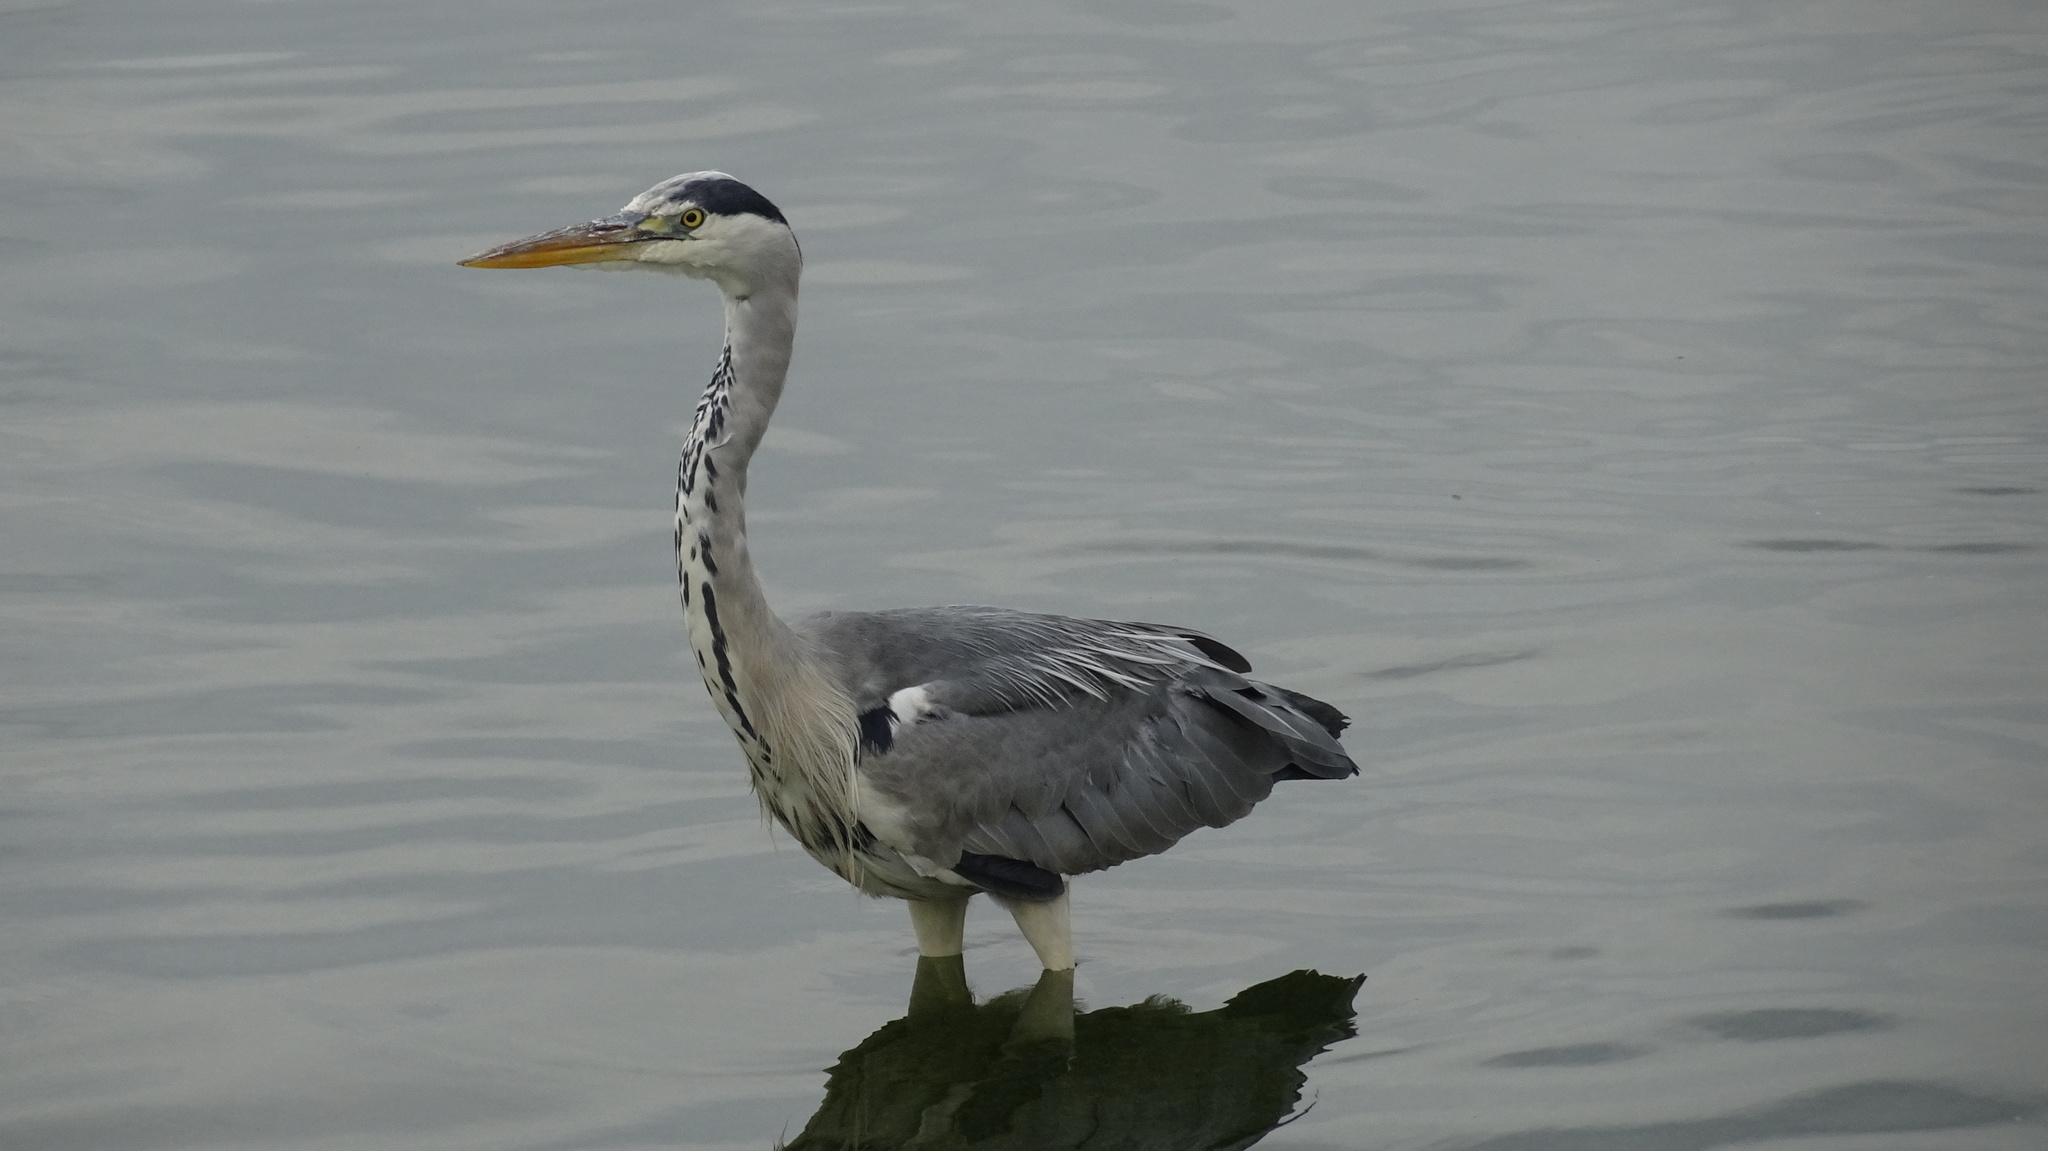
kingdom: Animalia
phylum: Chordata
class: Aves
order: Pelecaniformes
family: Ardeidae
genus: Ardea
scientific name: Ardea cinerea
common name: Grey heron
